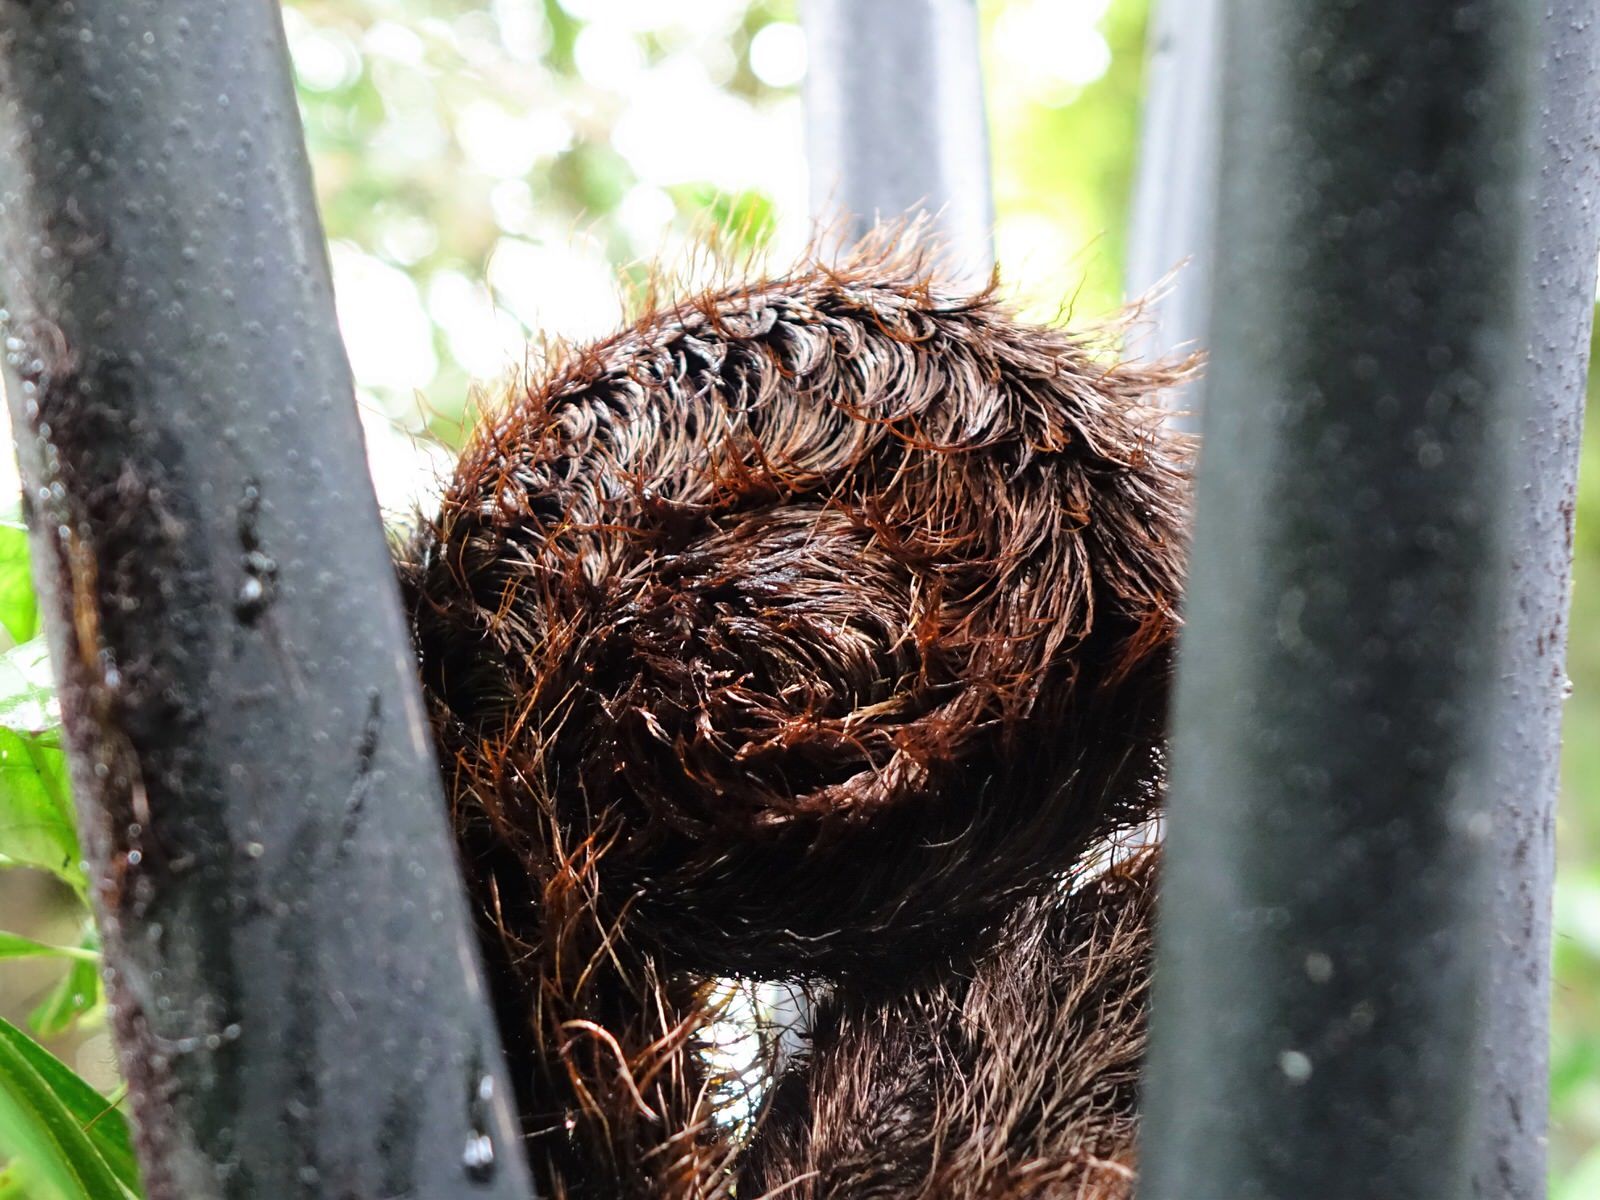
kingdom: Plantae
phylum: Tracheophyta
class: Polypodiopsida
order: Cyatheales
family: Cyatheaceae
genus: Sphaeropteris
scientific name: Sphaeropteris medullaris
